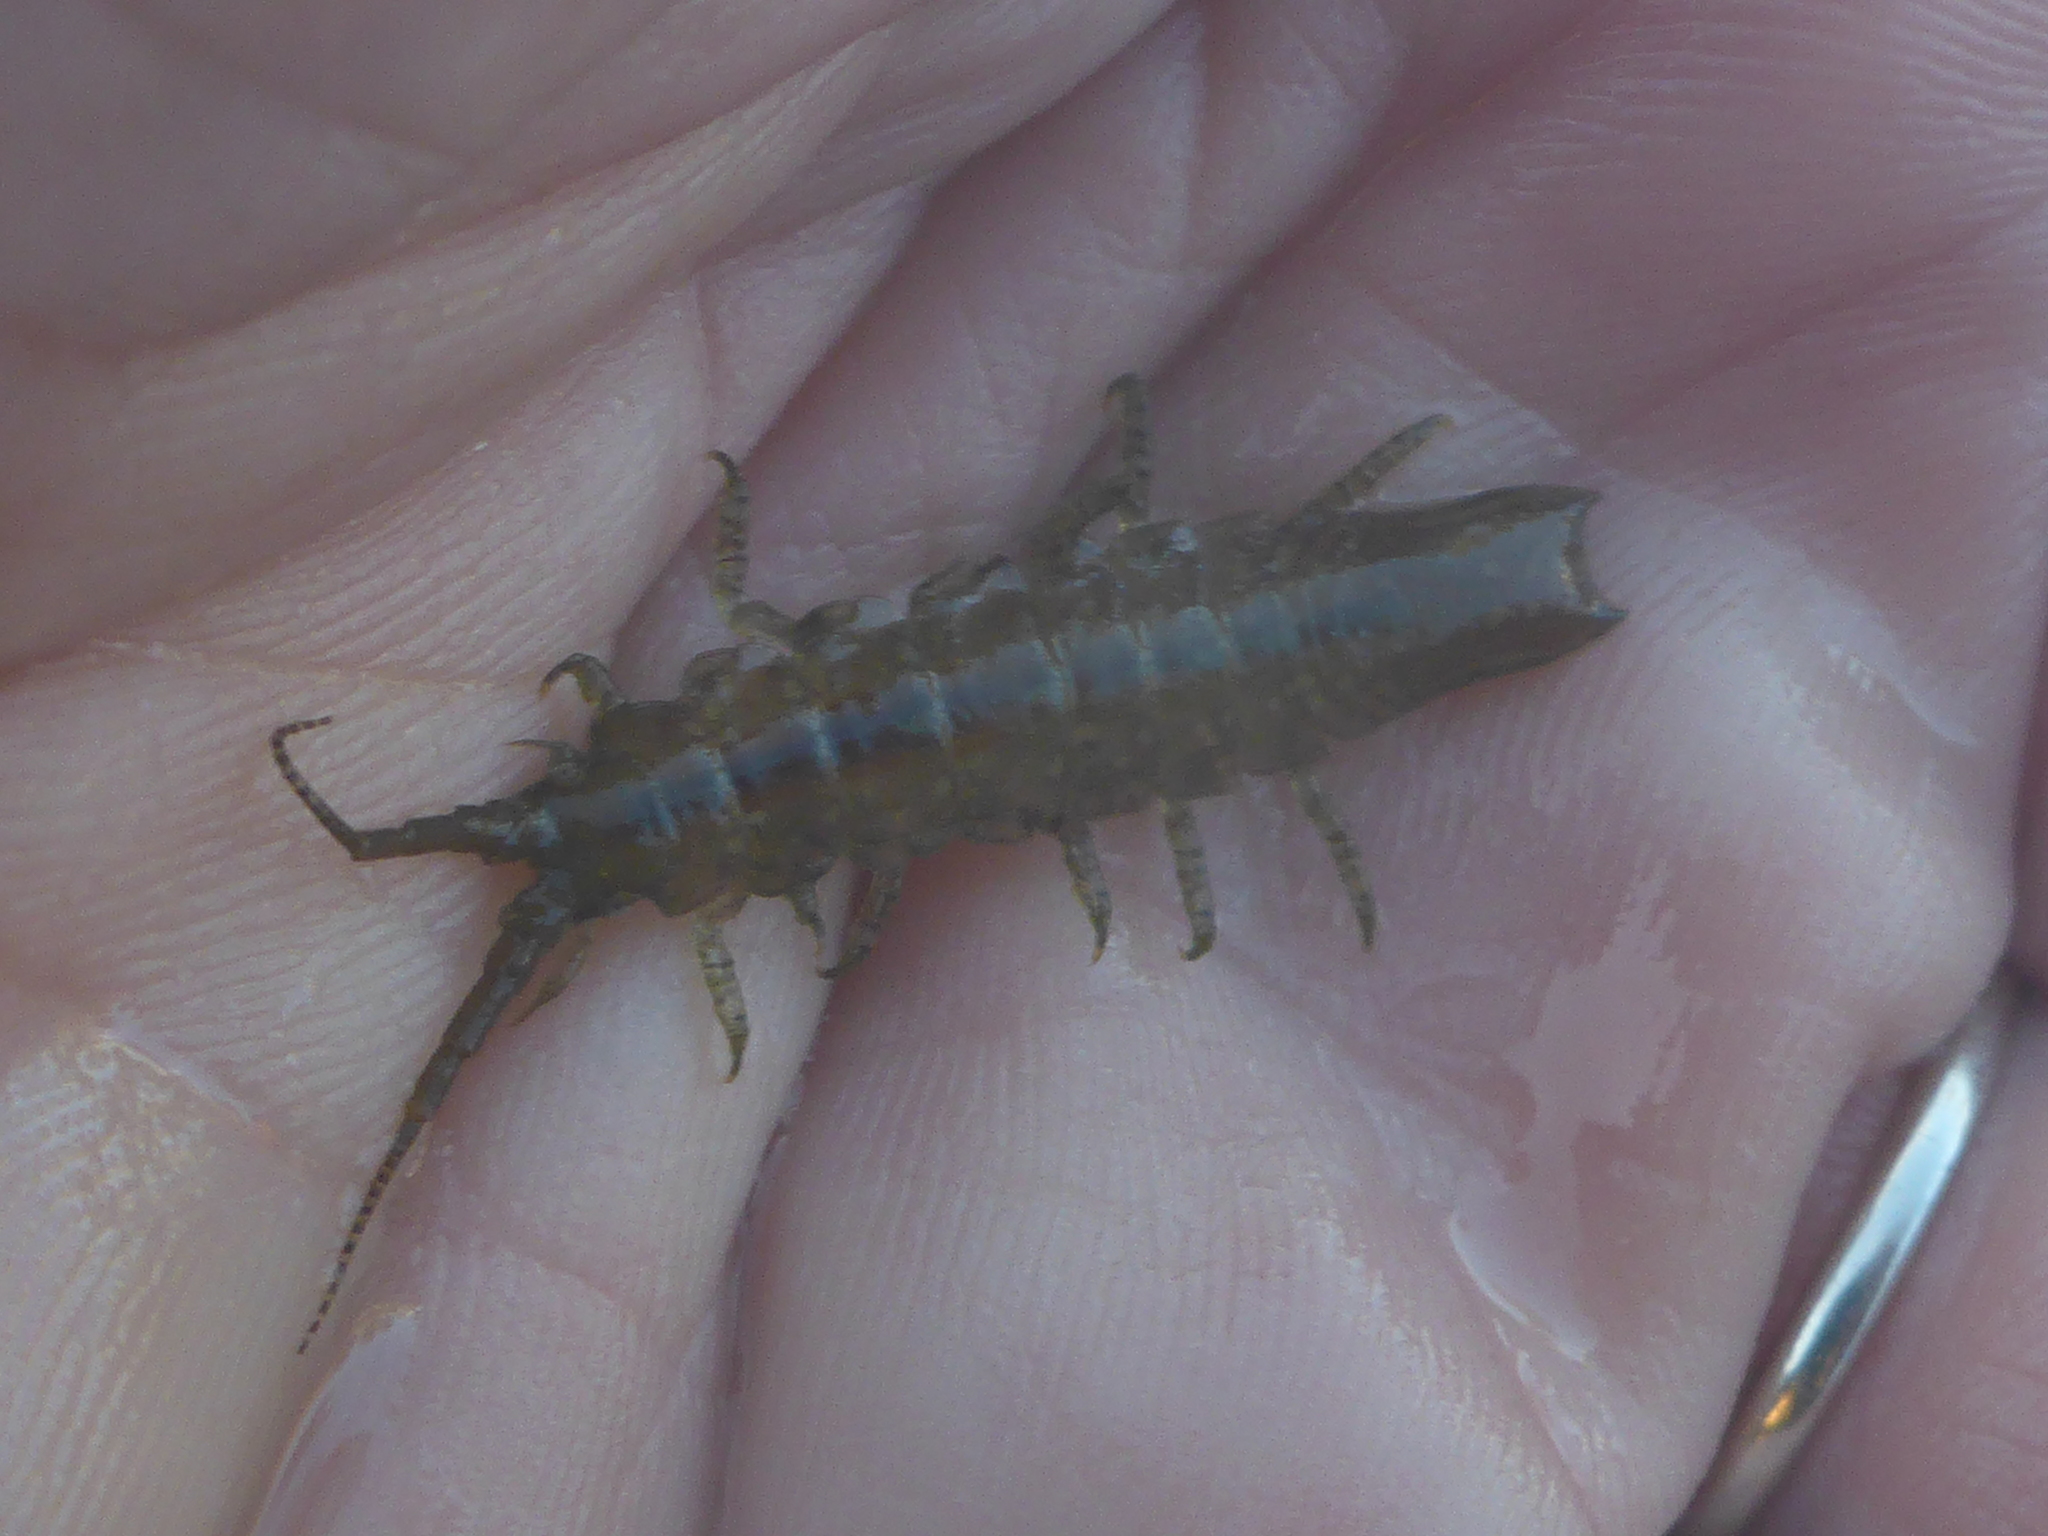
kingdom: Animalia
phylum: Arthropoda
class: Malacostraca
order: Isopoda
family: Idoteidae
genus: Pentidotea
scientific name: Pentidotea resecata
